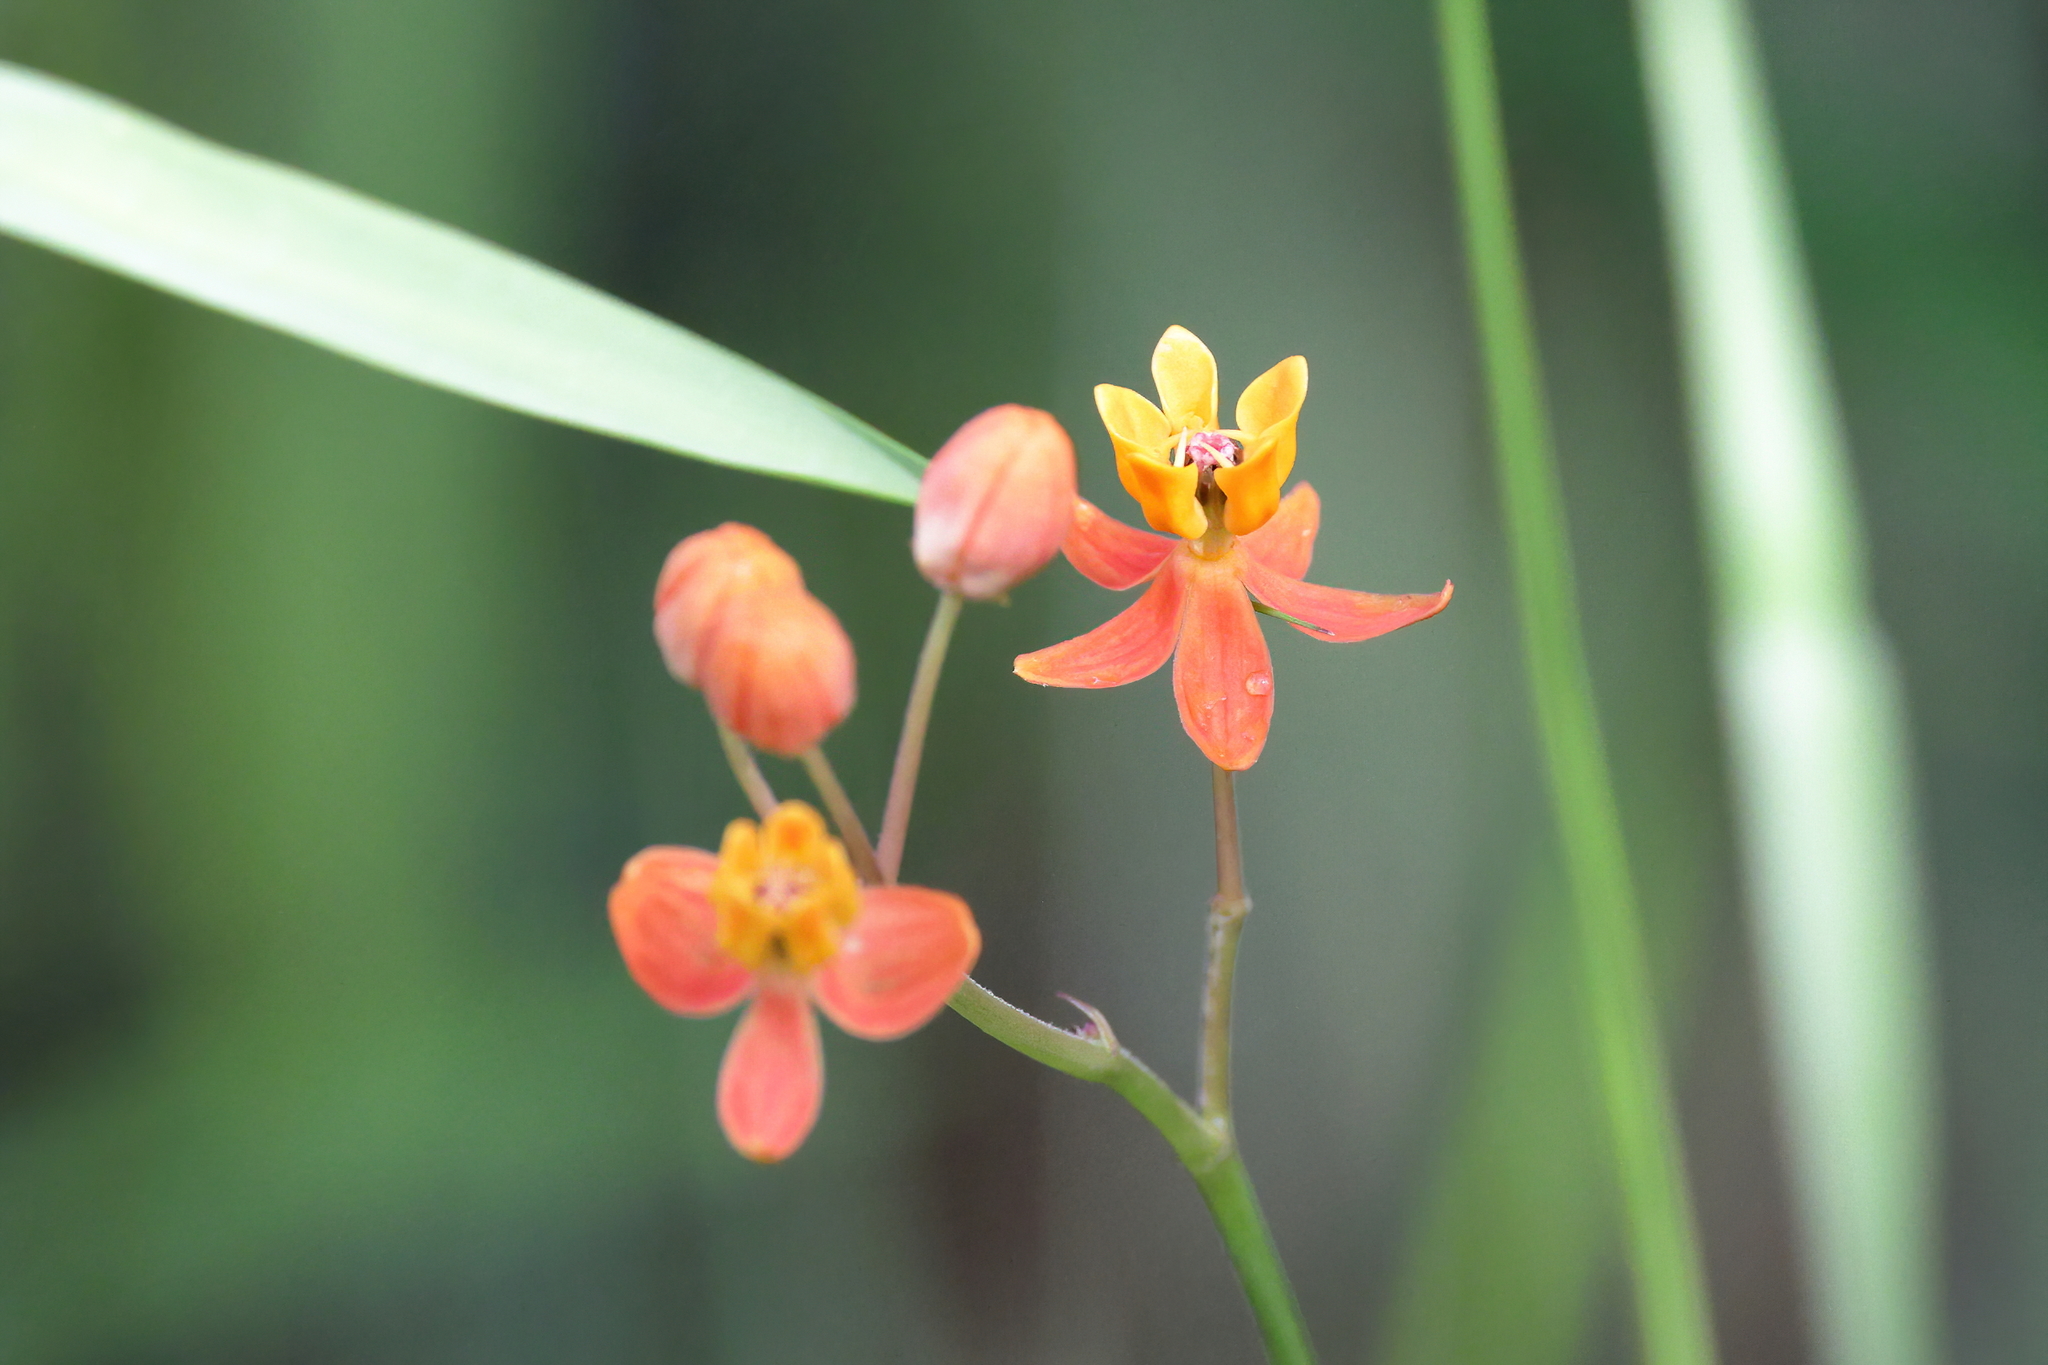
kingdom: Plantae
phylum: Tracheophyta
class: Magnoliopsida
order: Gentianales
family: Apocynaceae
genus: Asclepias
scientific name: Asclepias lanceolata
